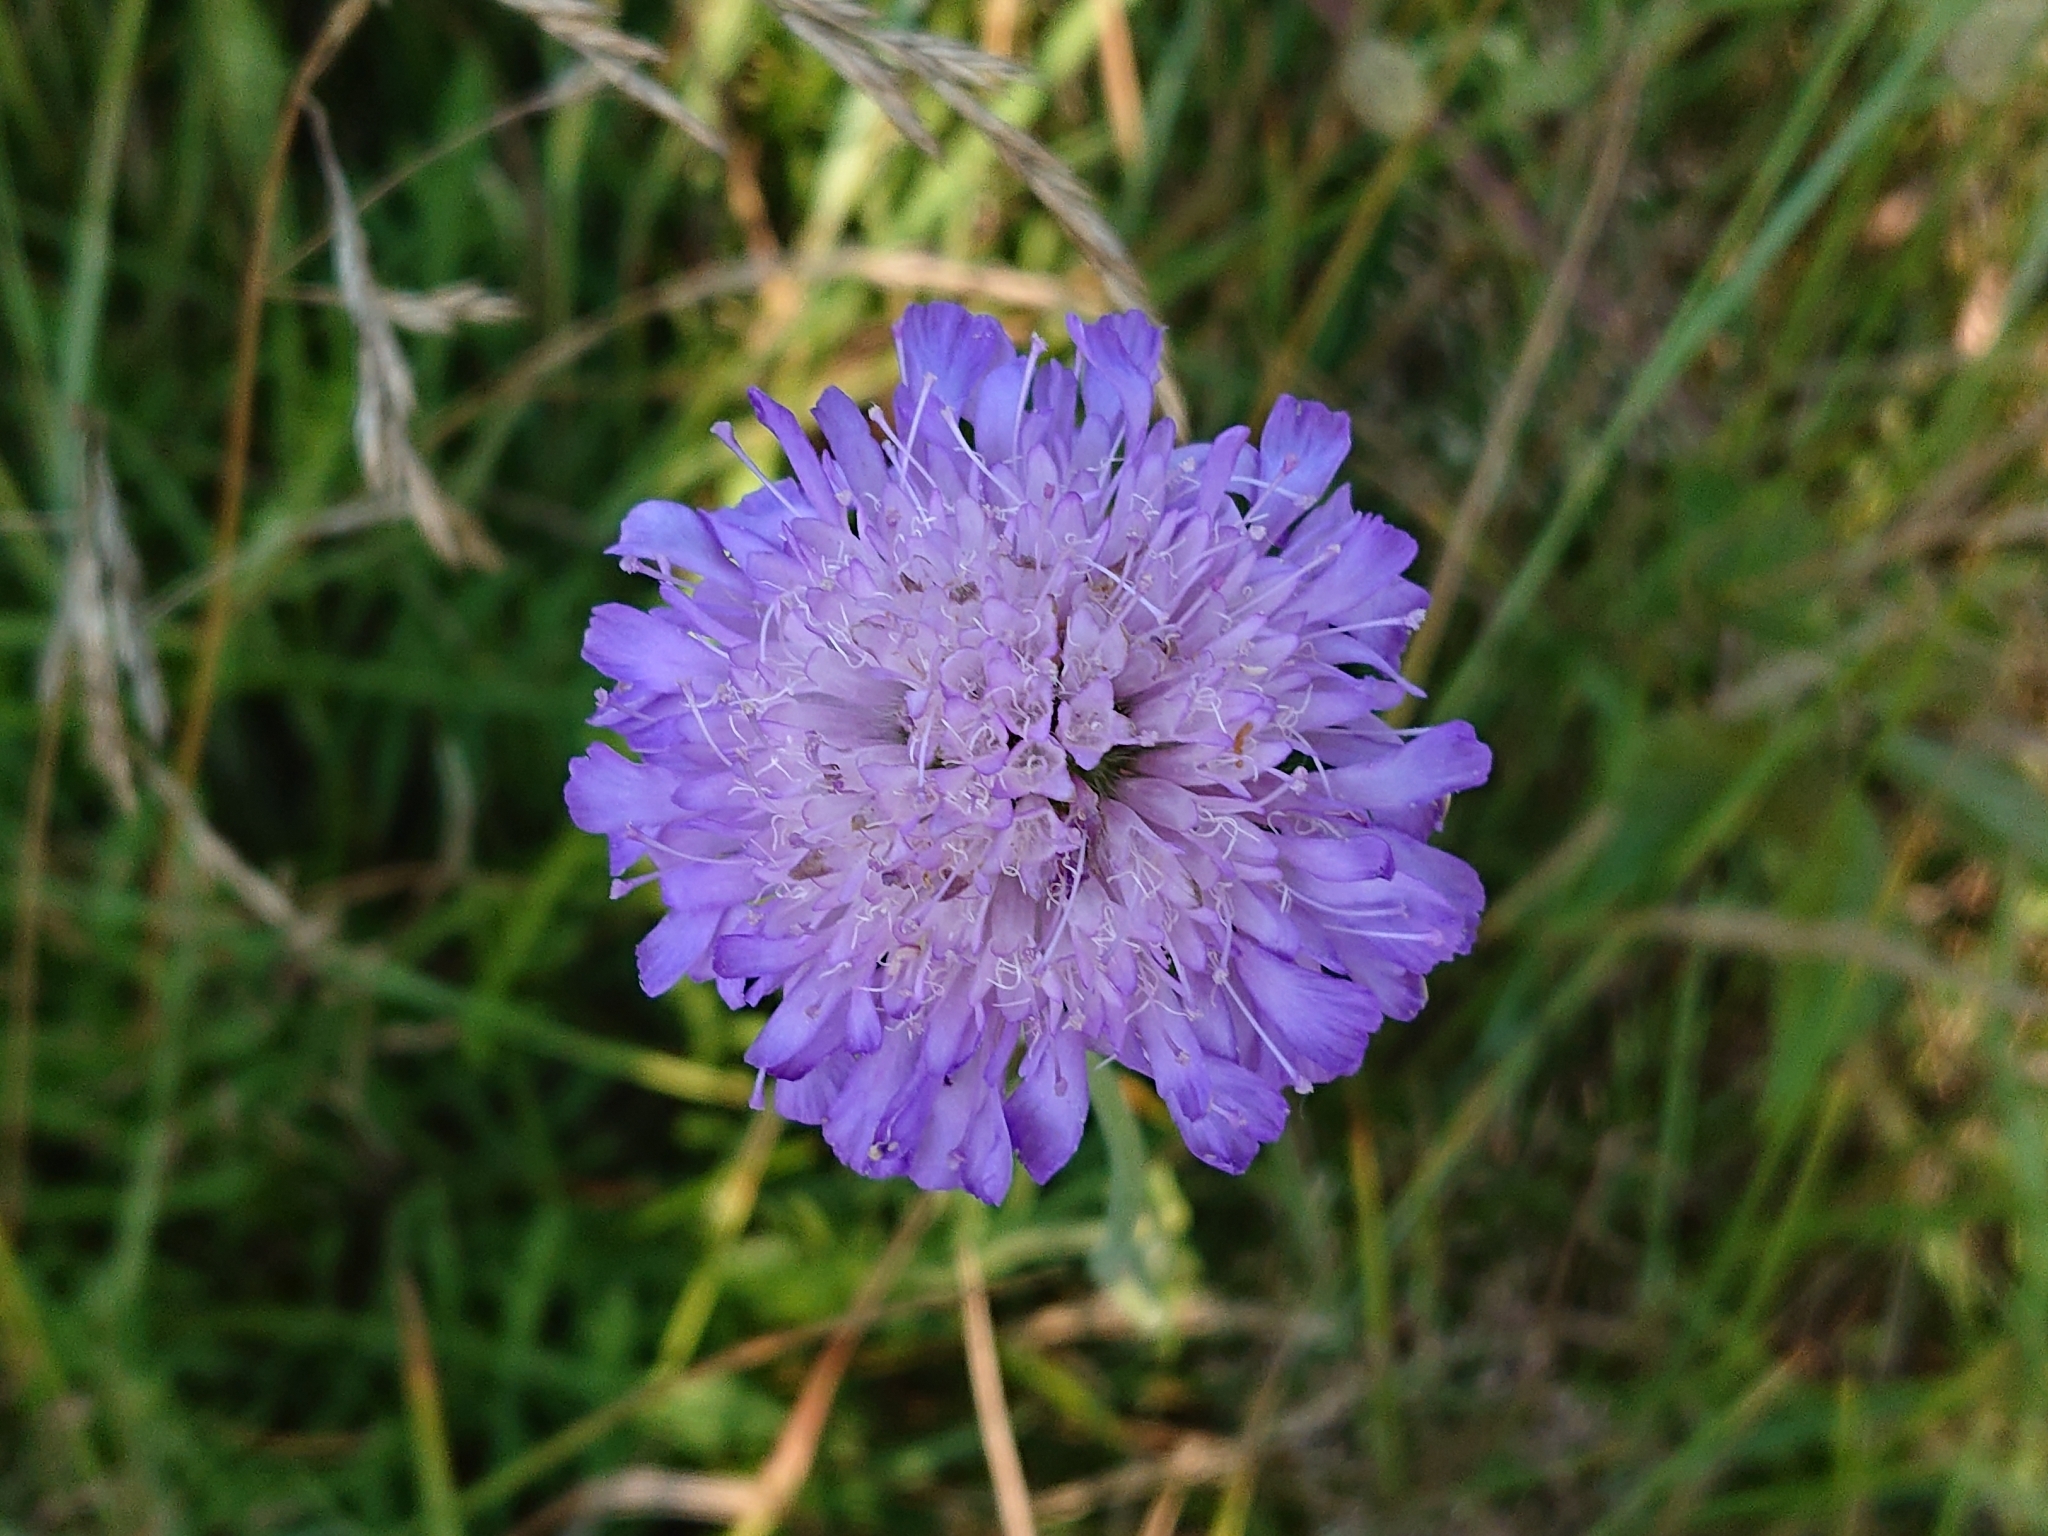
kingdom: Plantae
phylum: Tracheophyta
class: Magnoliopsida
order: Dipsacales
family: Caprifoliaceae
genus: Knautia
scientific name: Knautia arvensis
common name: Field scabiosa
